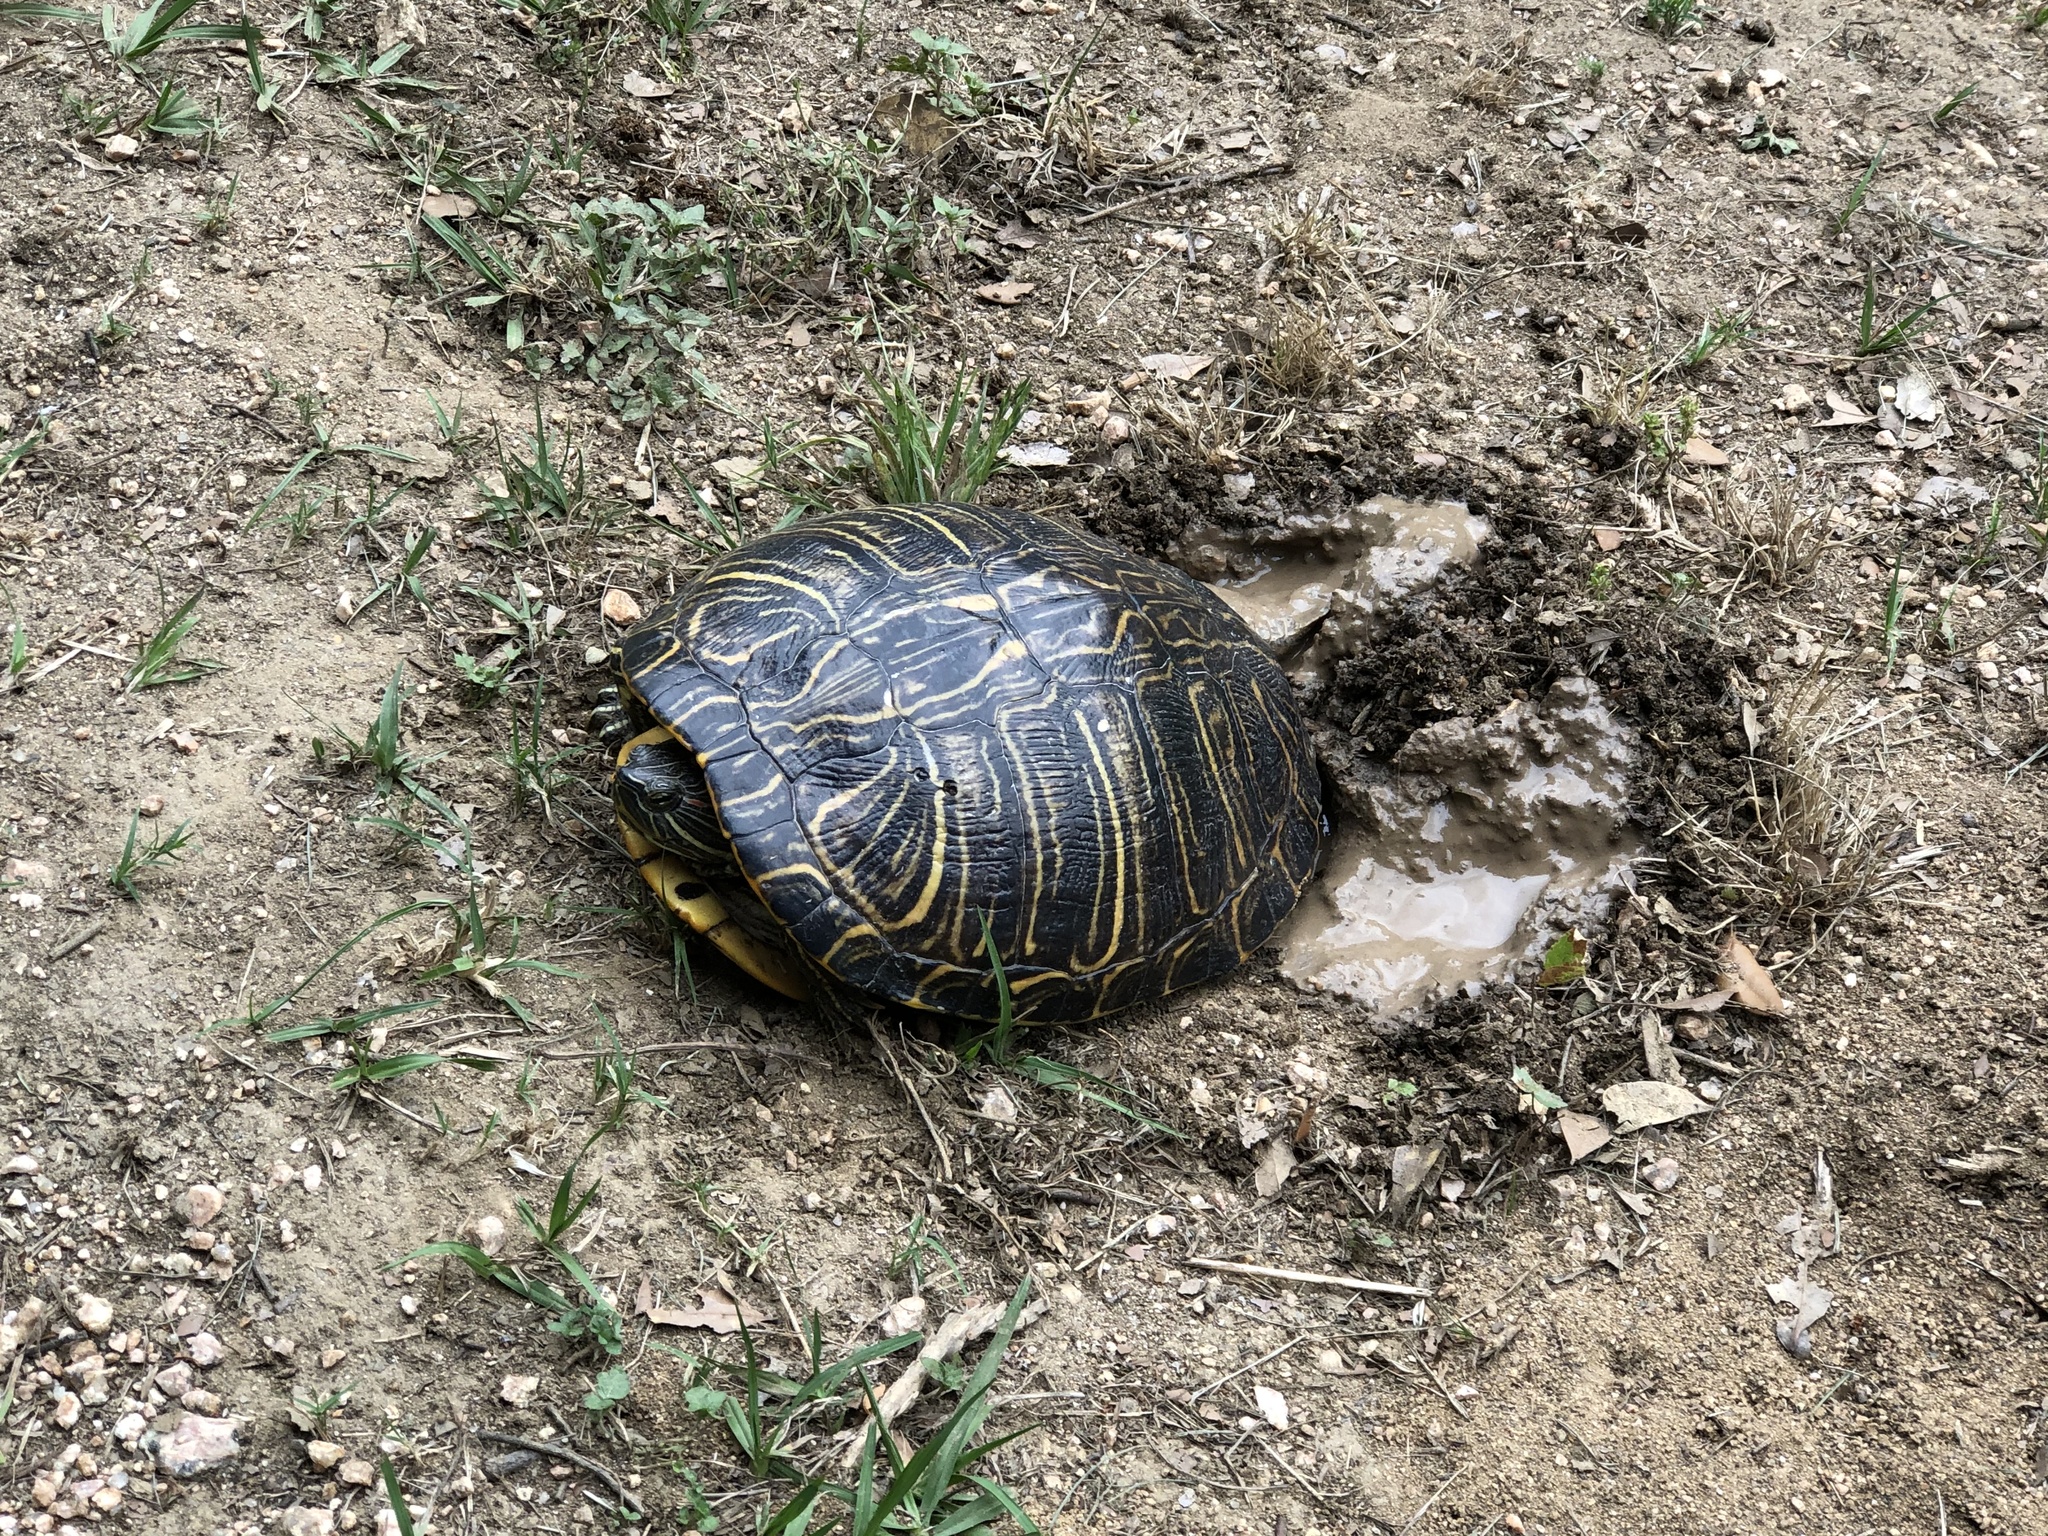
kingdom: Animalia
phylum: Chordata
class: Testudines
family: Emydidae
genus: Trachemys
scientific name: Trachemys scripta
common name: Slider
